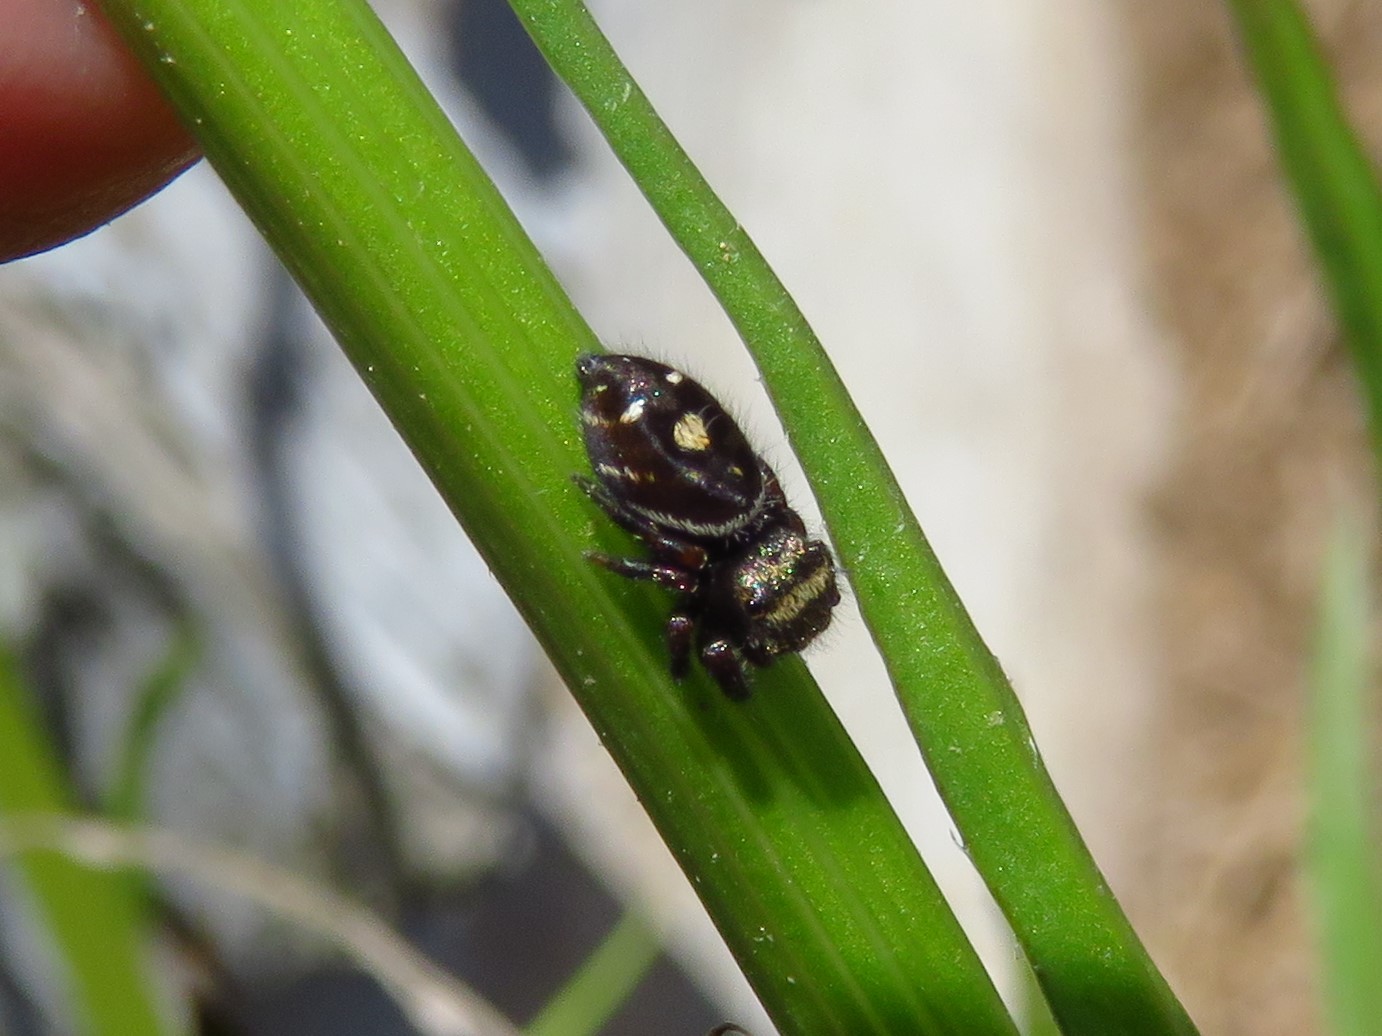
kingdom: Animalia
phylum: Arthropoda
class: Arachnida
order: Araneae
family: Salticidae
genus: Phidippus
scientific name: Phidippus audax
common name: Bold jumper
